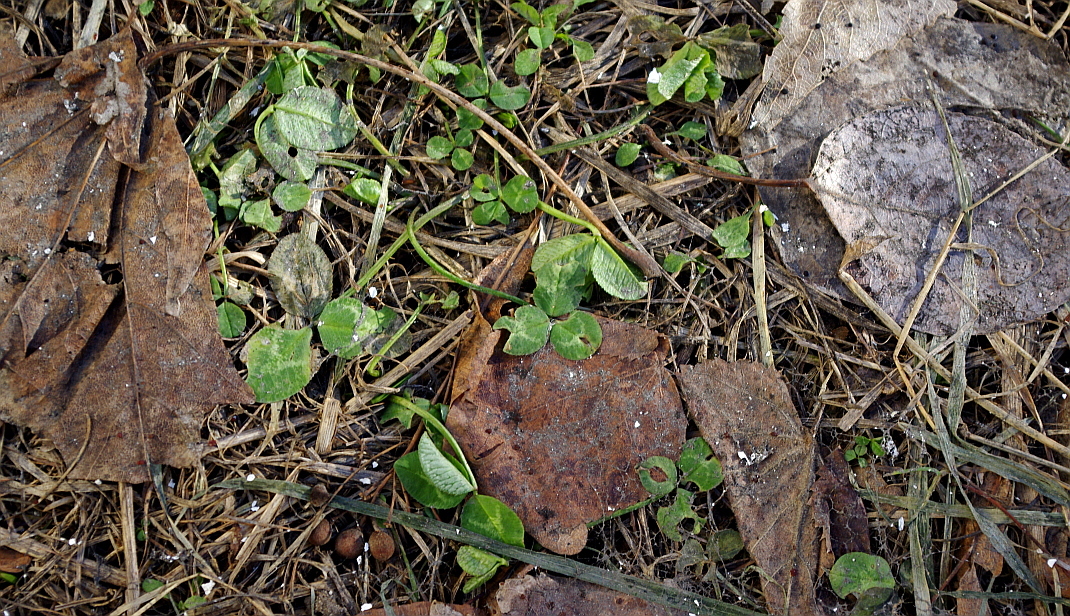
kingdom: Plantae
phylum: Tracheophyta
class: Magnoliopsida
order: Fabales
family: Fabaceae
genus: Trifolium
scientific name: Trifolium repens
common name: White clover
